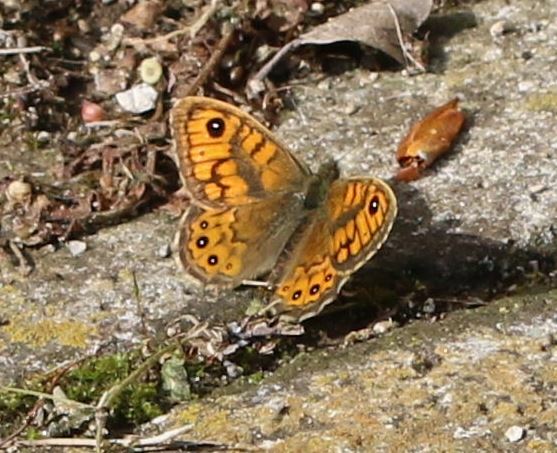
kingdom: Animalia
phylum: Arthropoda
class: Insecta
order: Lepidoptera
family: Nymphalidae
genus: Pararge
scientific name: Pararge Lasiommata megera
